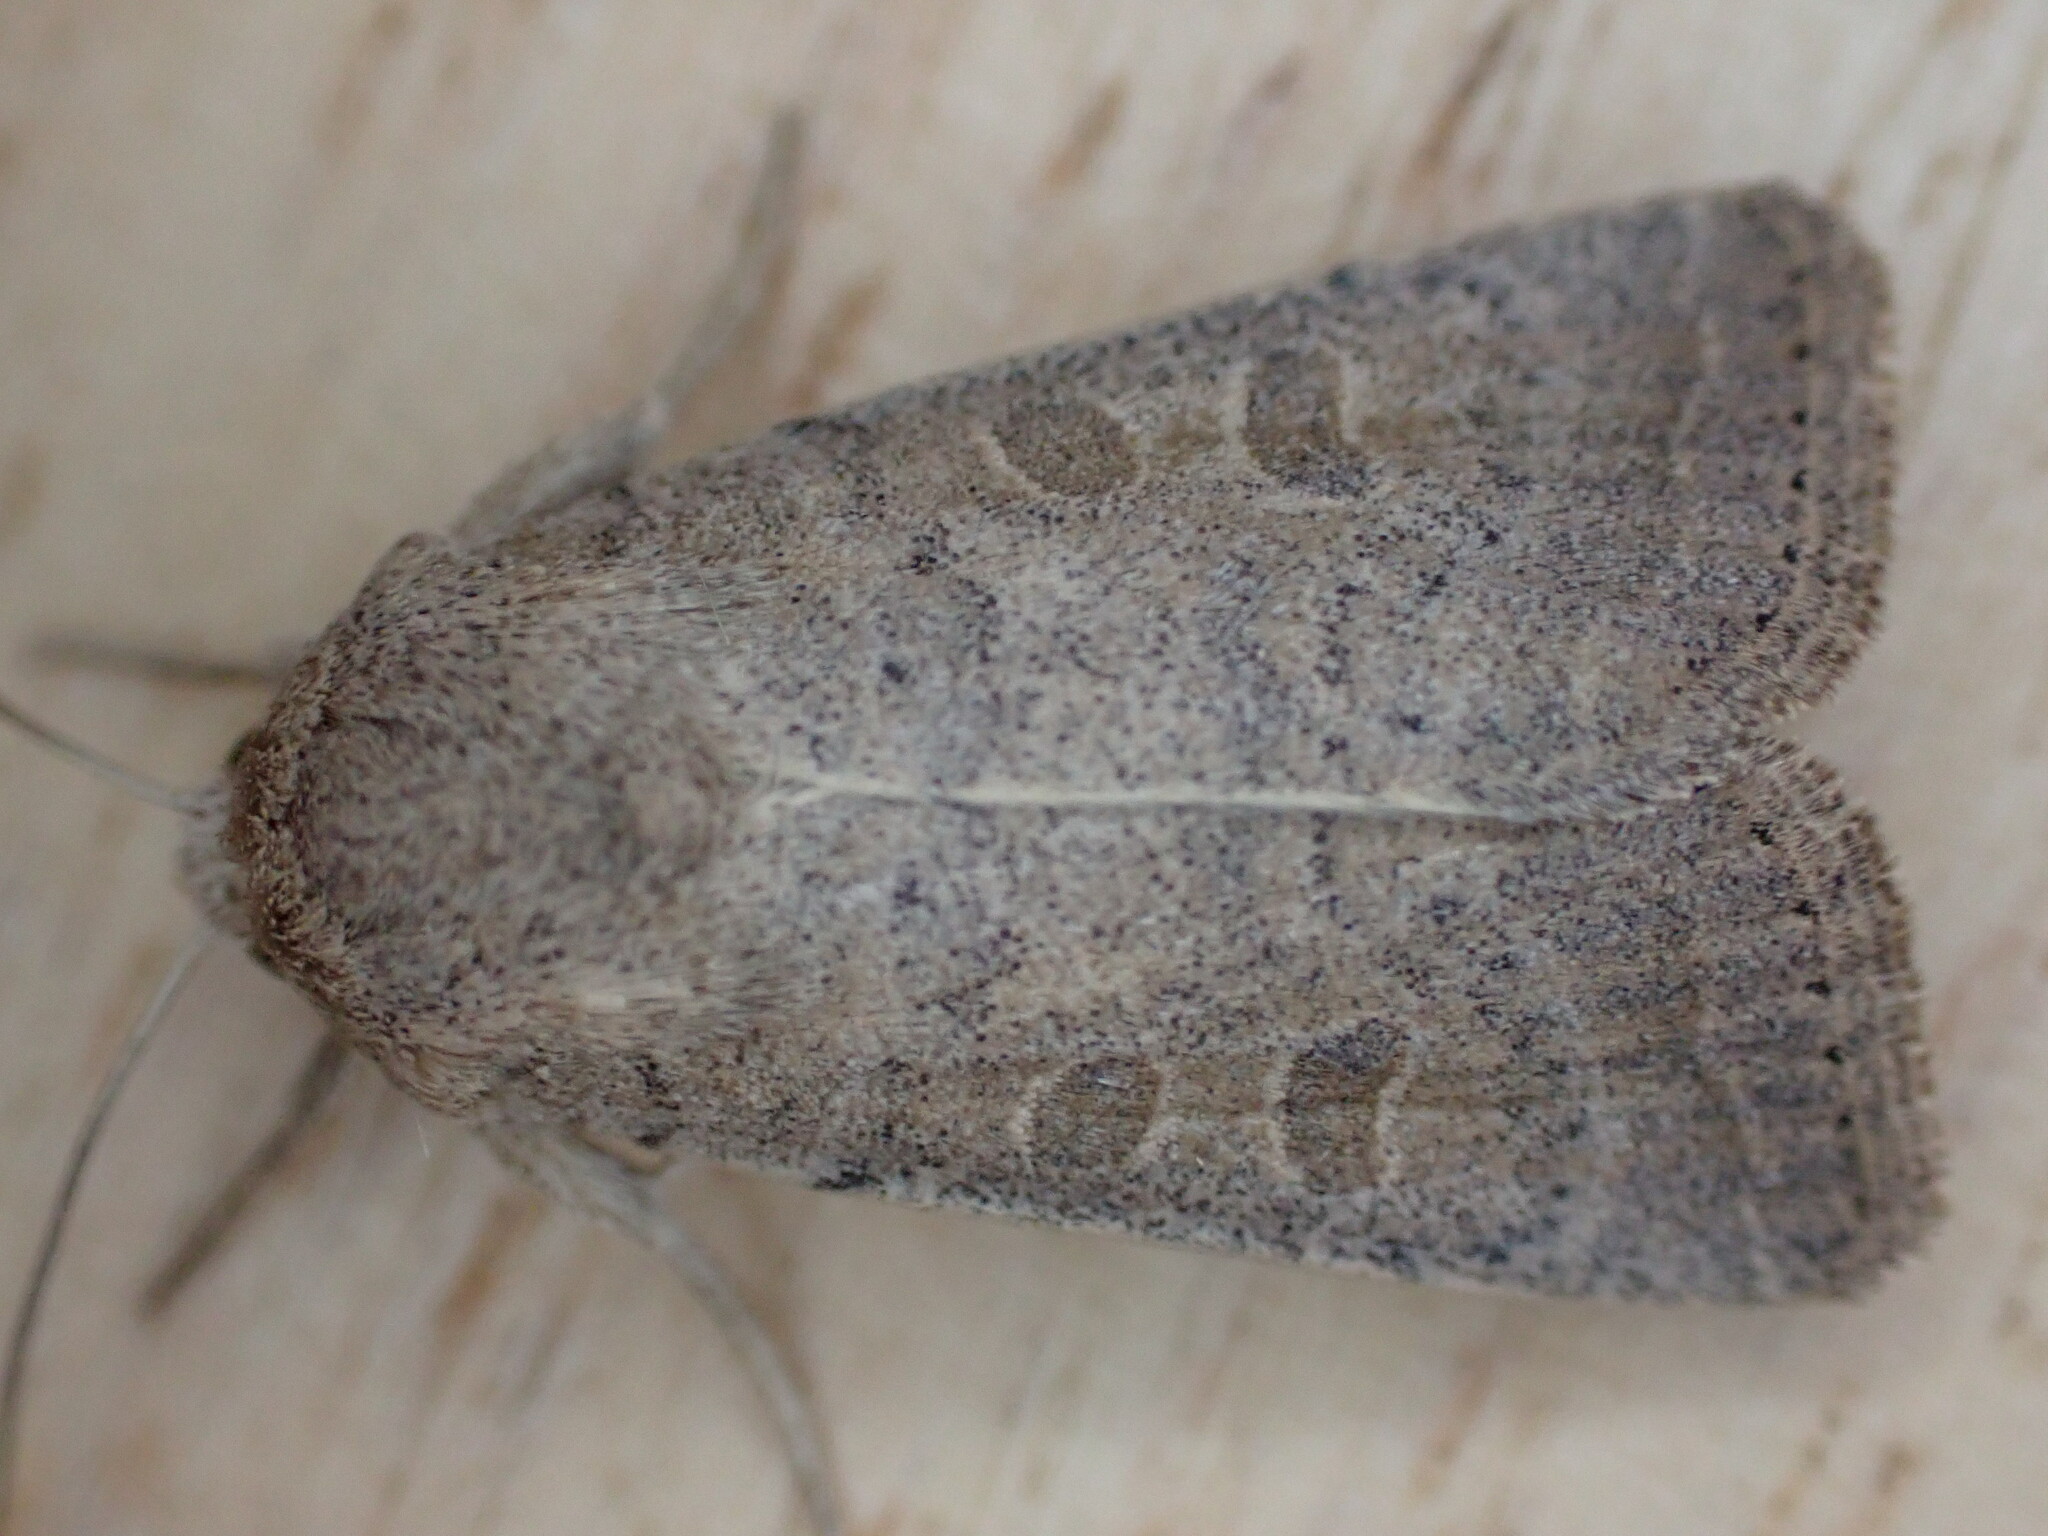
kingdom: Animalia
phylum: Arthropoda
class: Insecta
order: Lepidoptera
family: Noctuidae
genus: Hoplodrina
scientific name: Hoplodrina ambigua
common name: Vine's rustic
